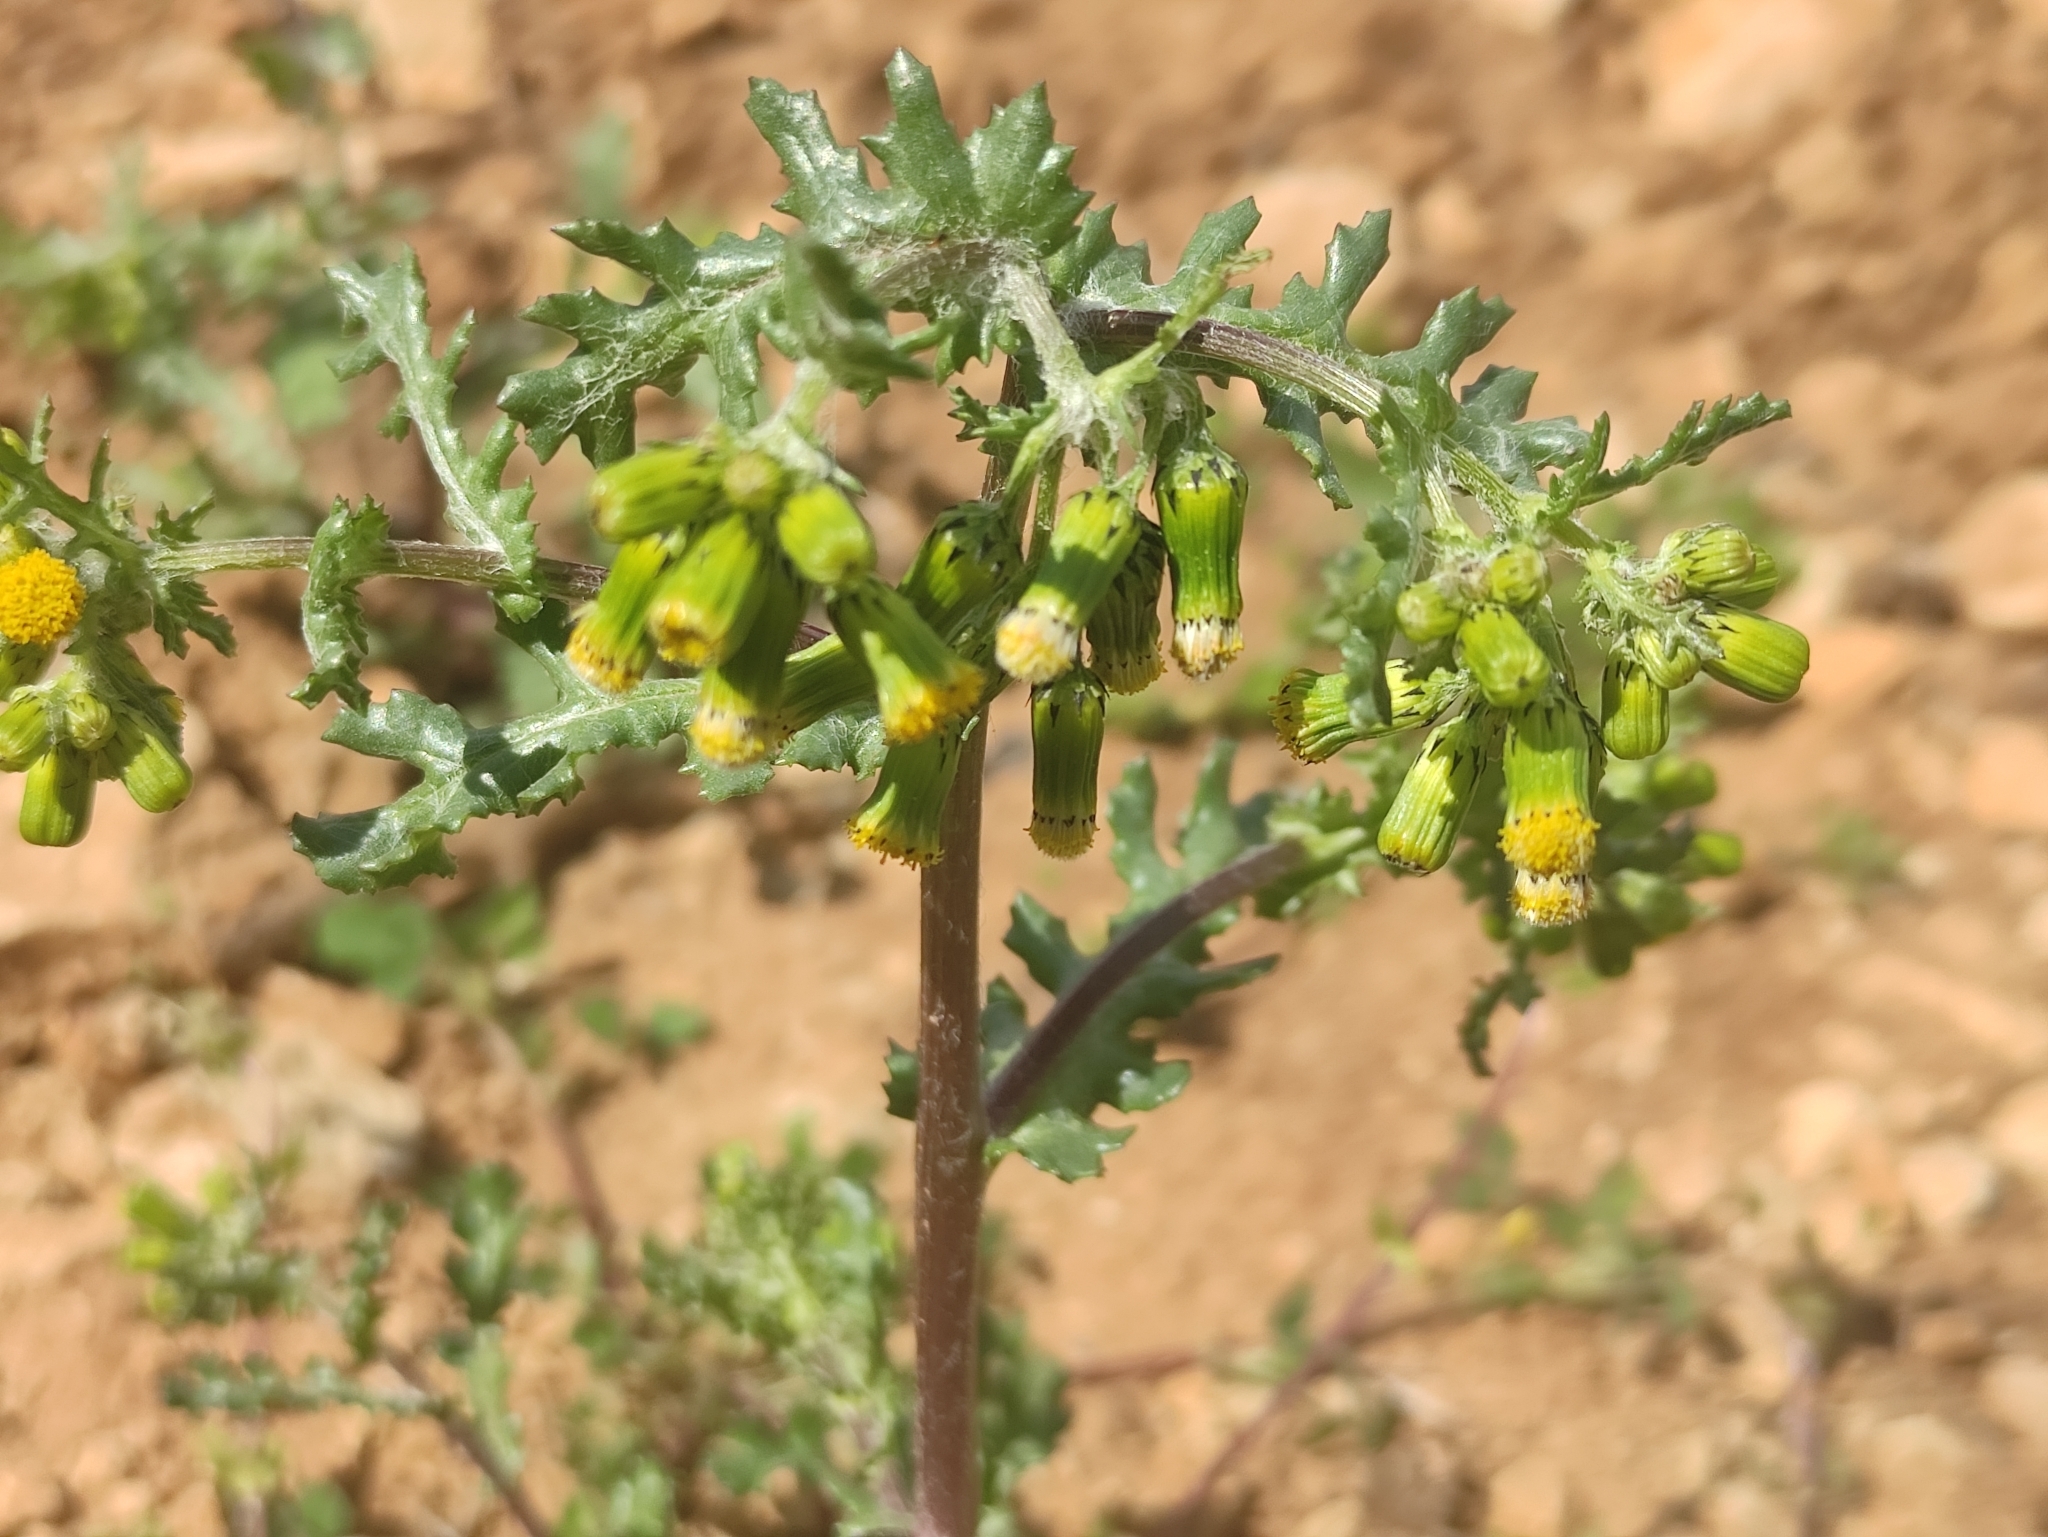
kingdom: Plantae
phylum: Tracheophyta
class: Magnoliopsida
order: Asterales
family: Asteraceae
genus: Senecio
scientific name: Senecio vulgaris
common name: Old-man-in-the-spring
